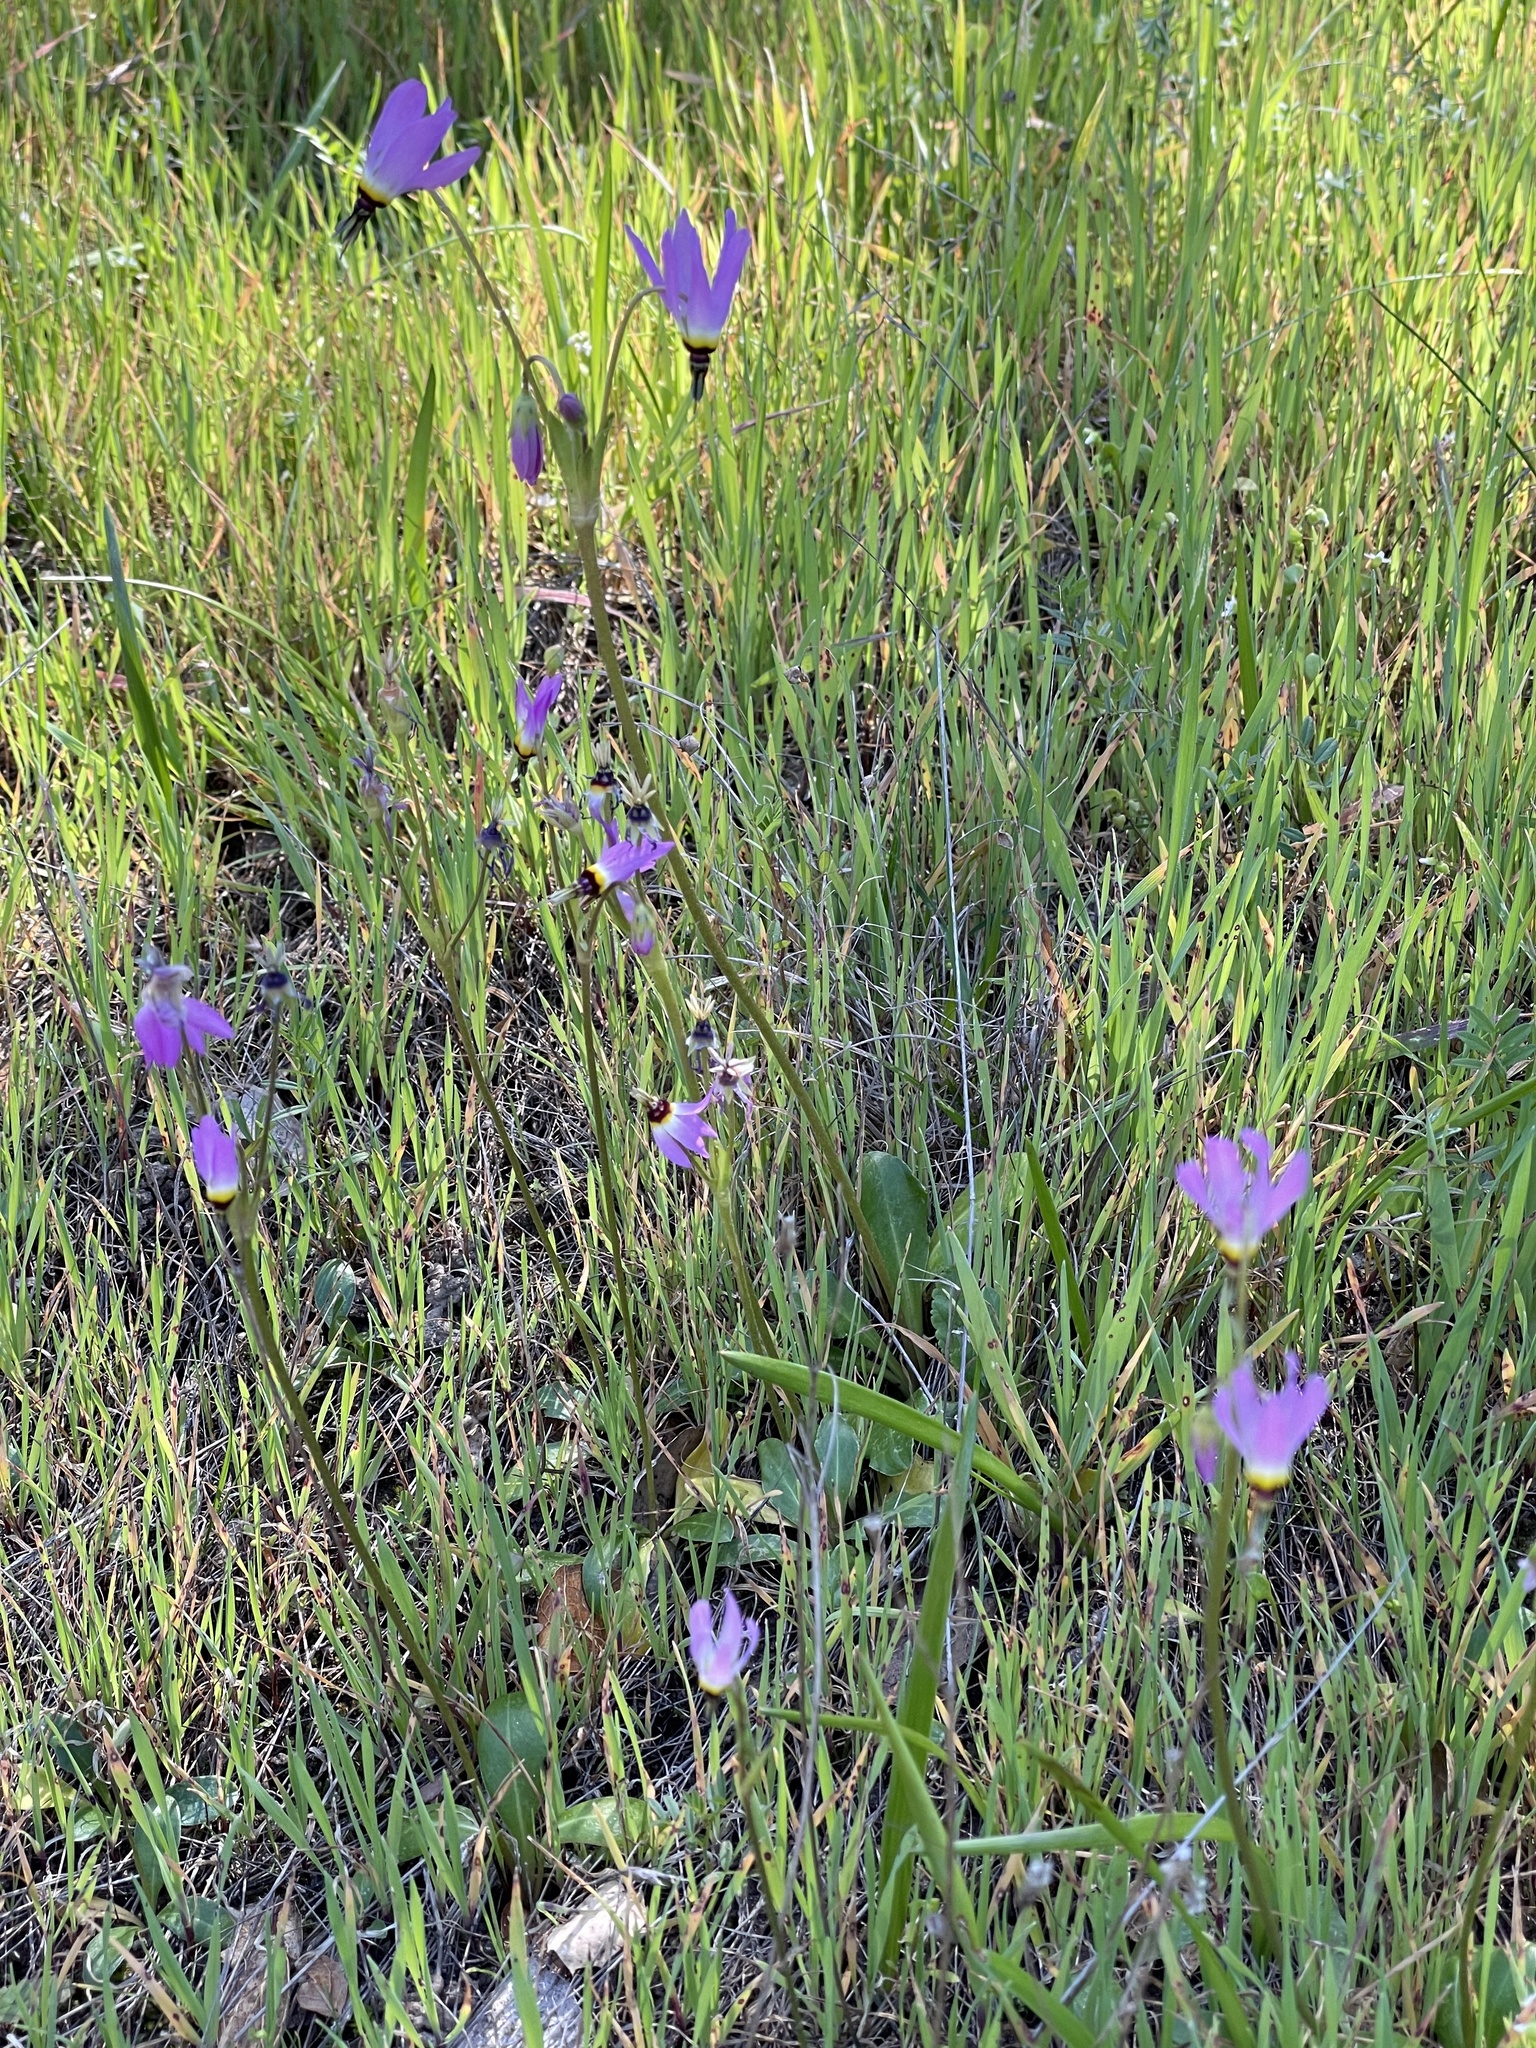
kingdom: Plantae
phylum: Tracheophyta
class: Magnoliopsida
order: Ericales
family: Primulaceae
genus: Dodecatheon
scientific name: Dodecatheon clevelandii
